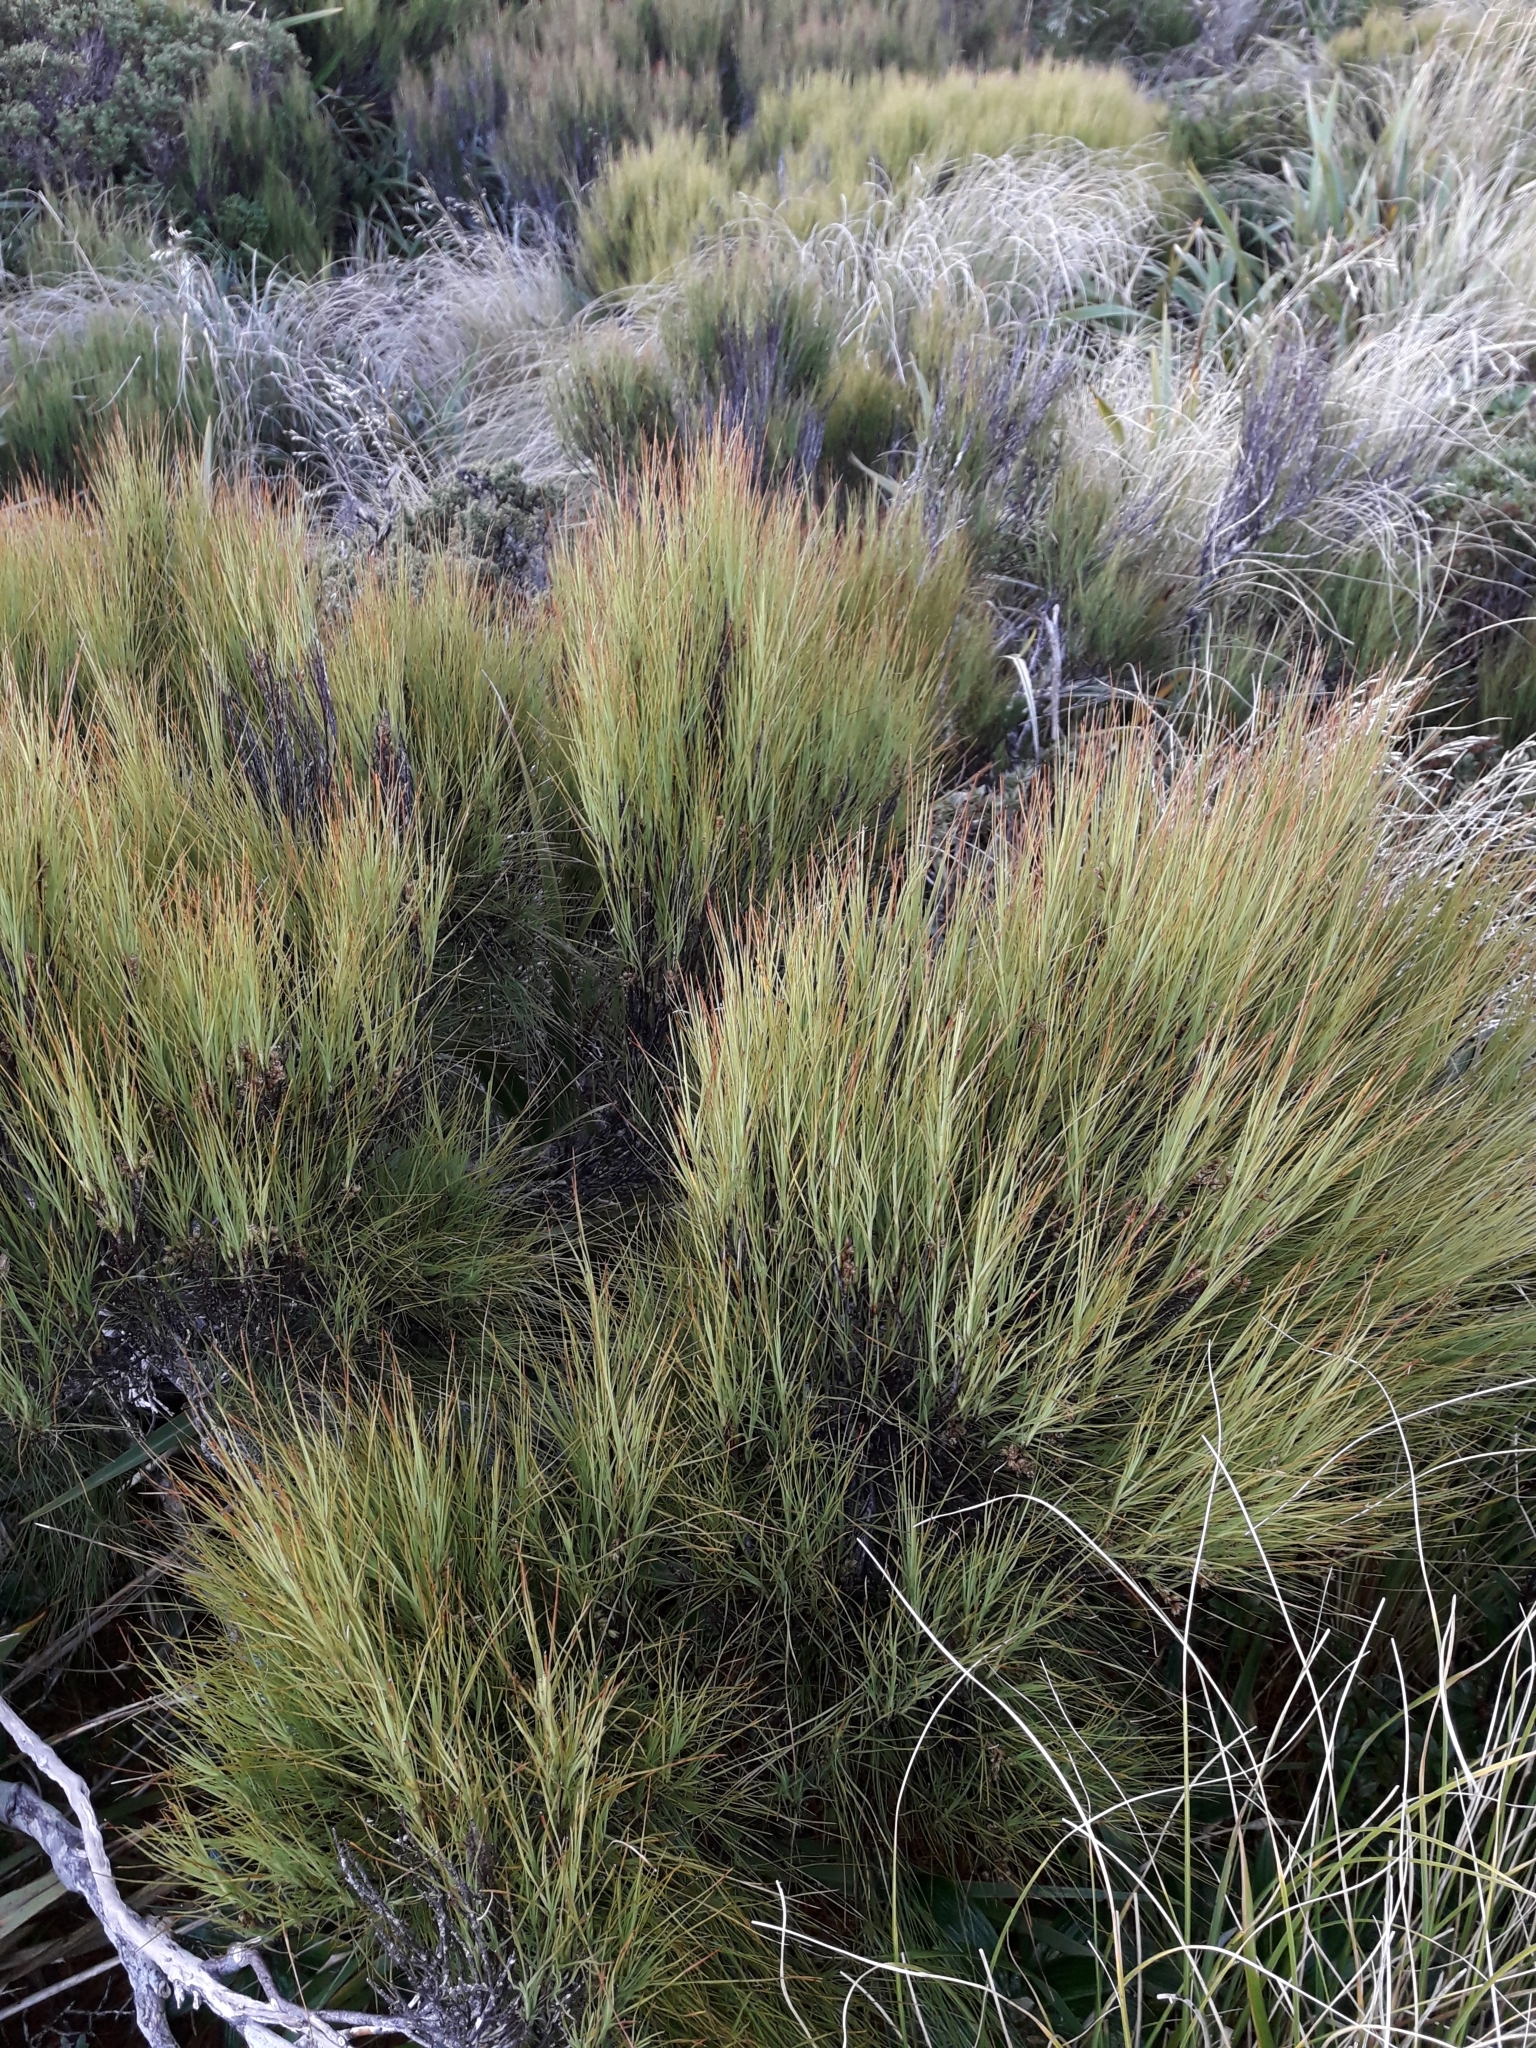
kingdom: Plantae
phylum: Tracheophyta
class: Magnoliopsida
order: Ericales
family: Ericaceae
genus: Dracophyllum
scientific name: Dracophyllum filifolium
